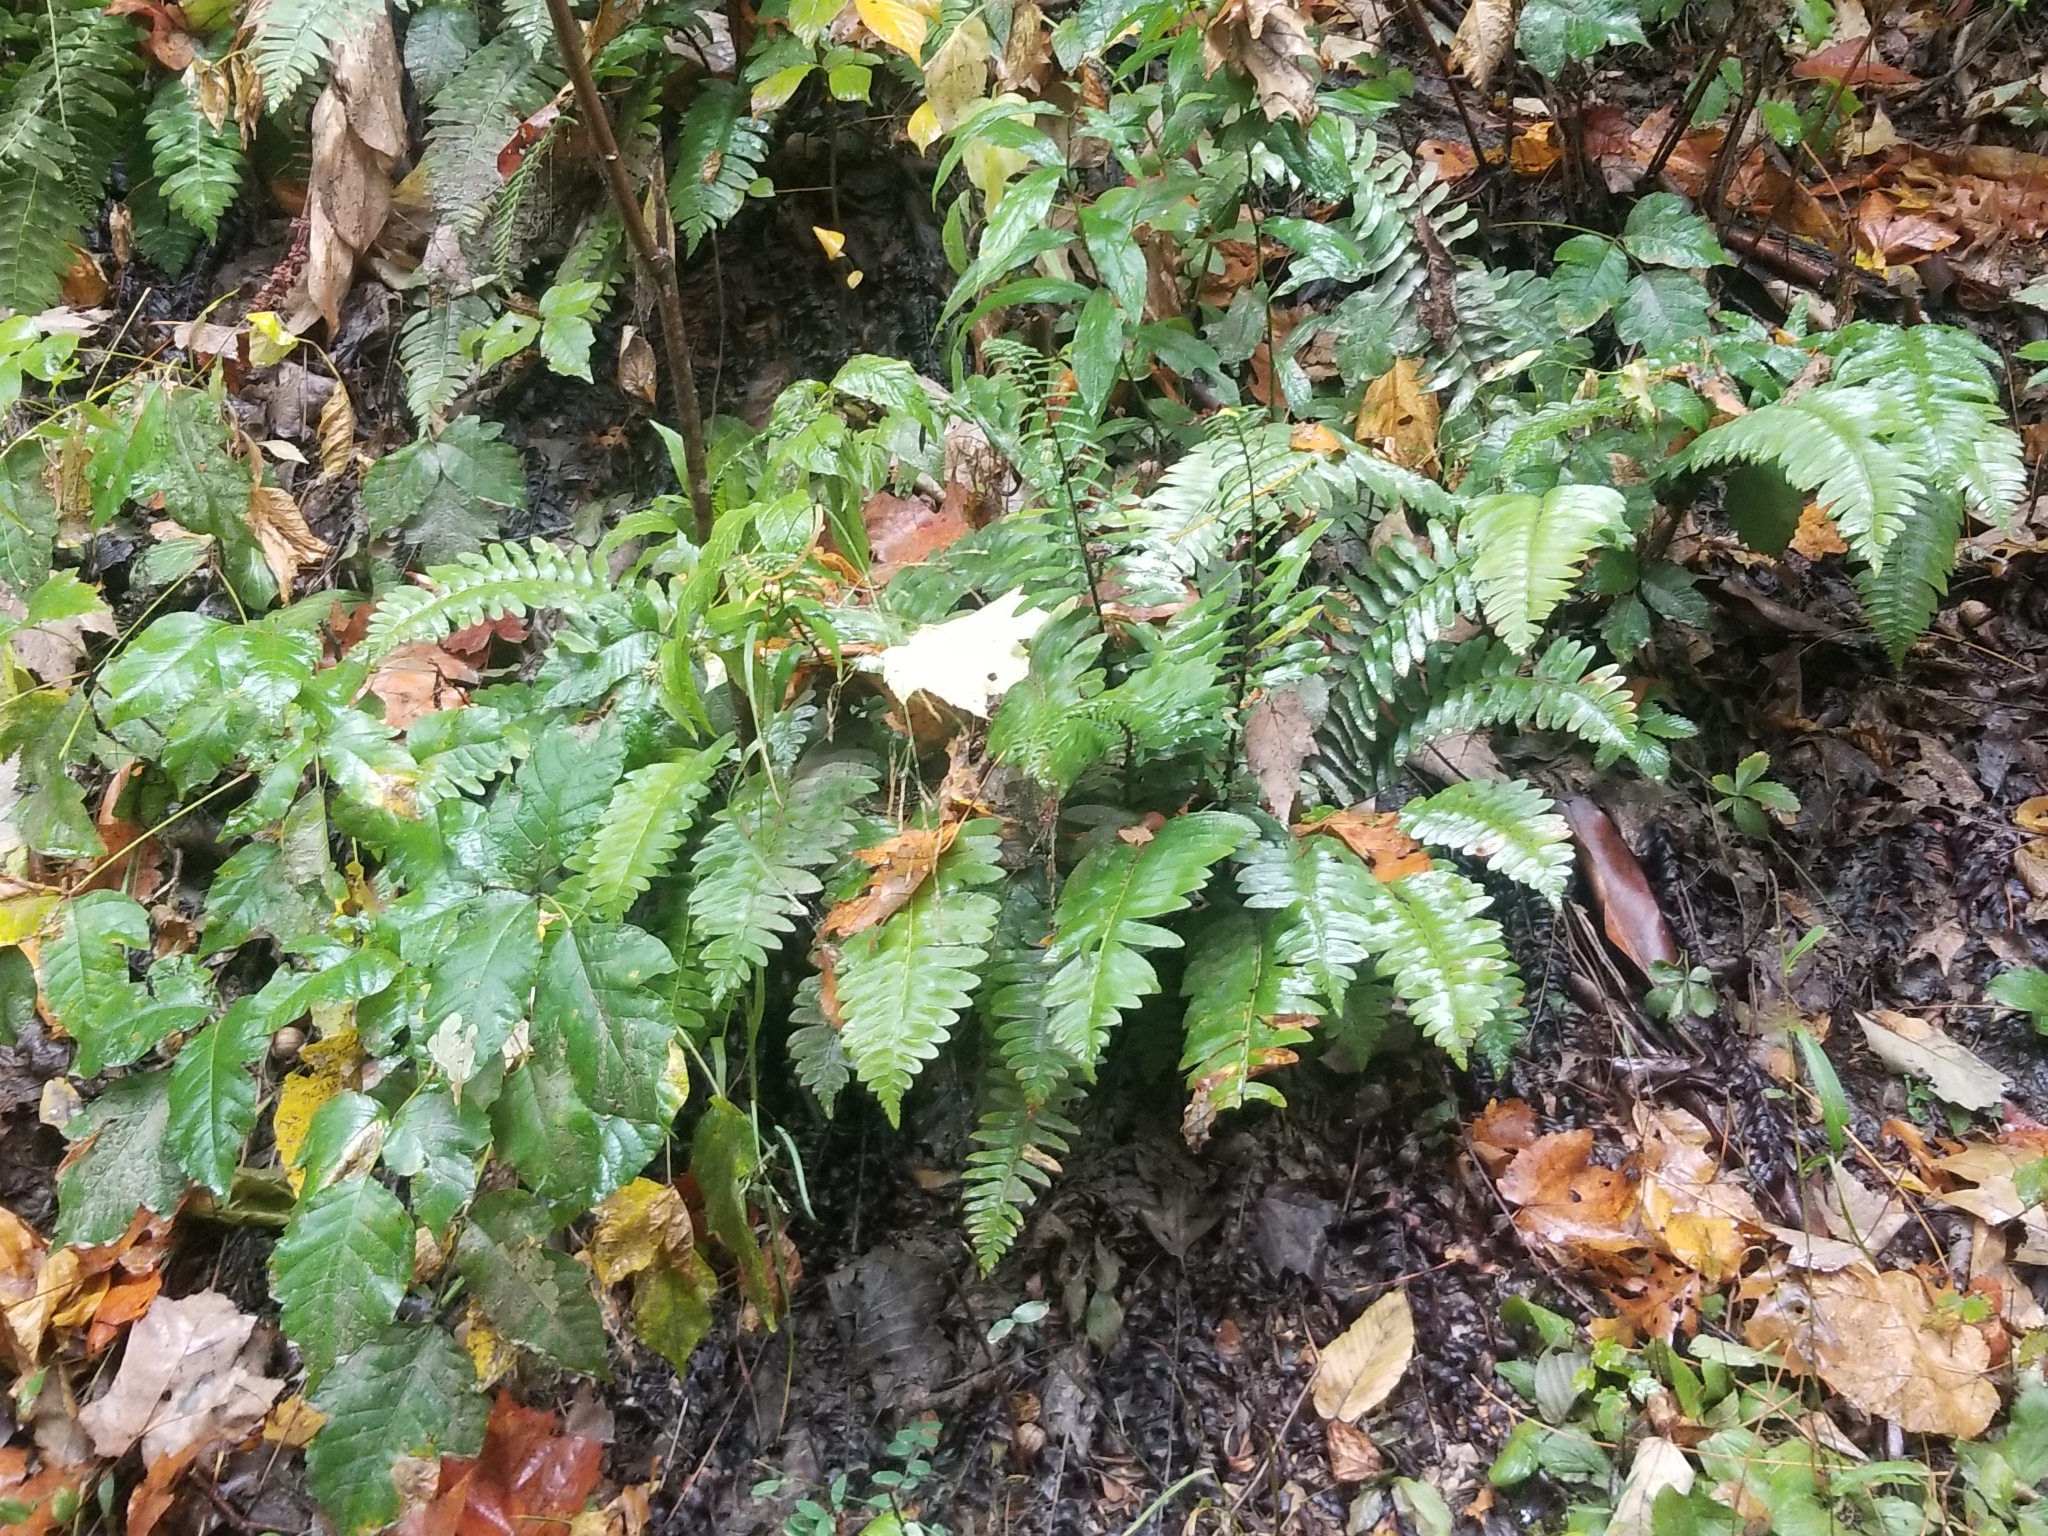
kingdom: Plantae
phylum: Tracheophyta
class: Polypodiopsida
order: Polypodiales
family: Dryopteridaceae
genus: Polystichum
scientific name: Polystichum acrostichoides
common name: Christmas fern
